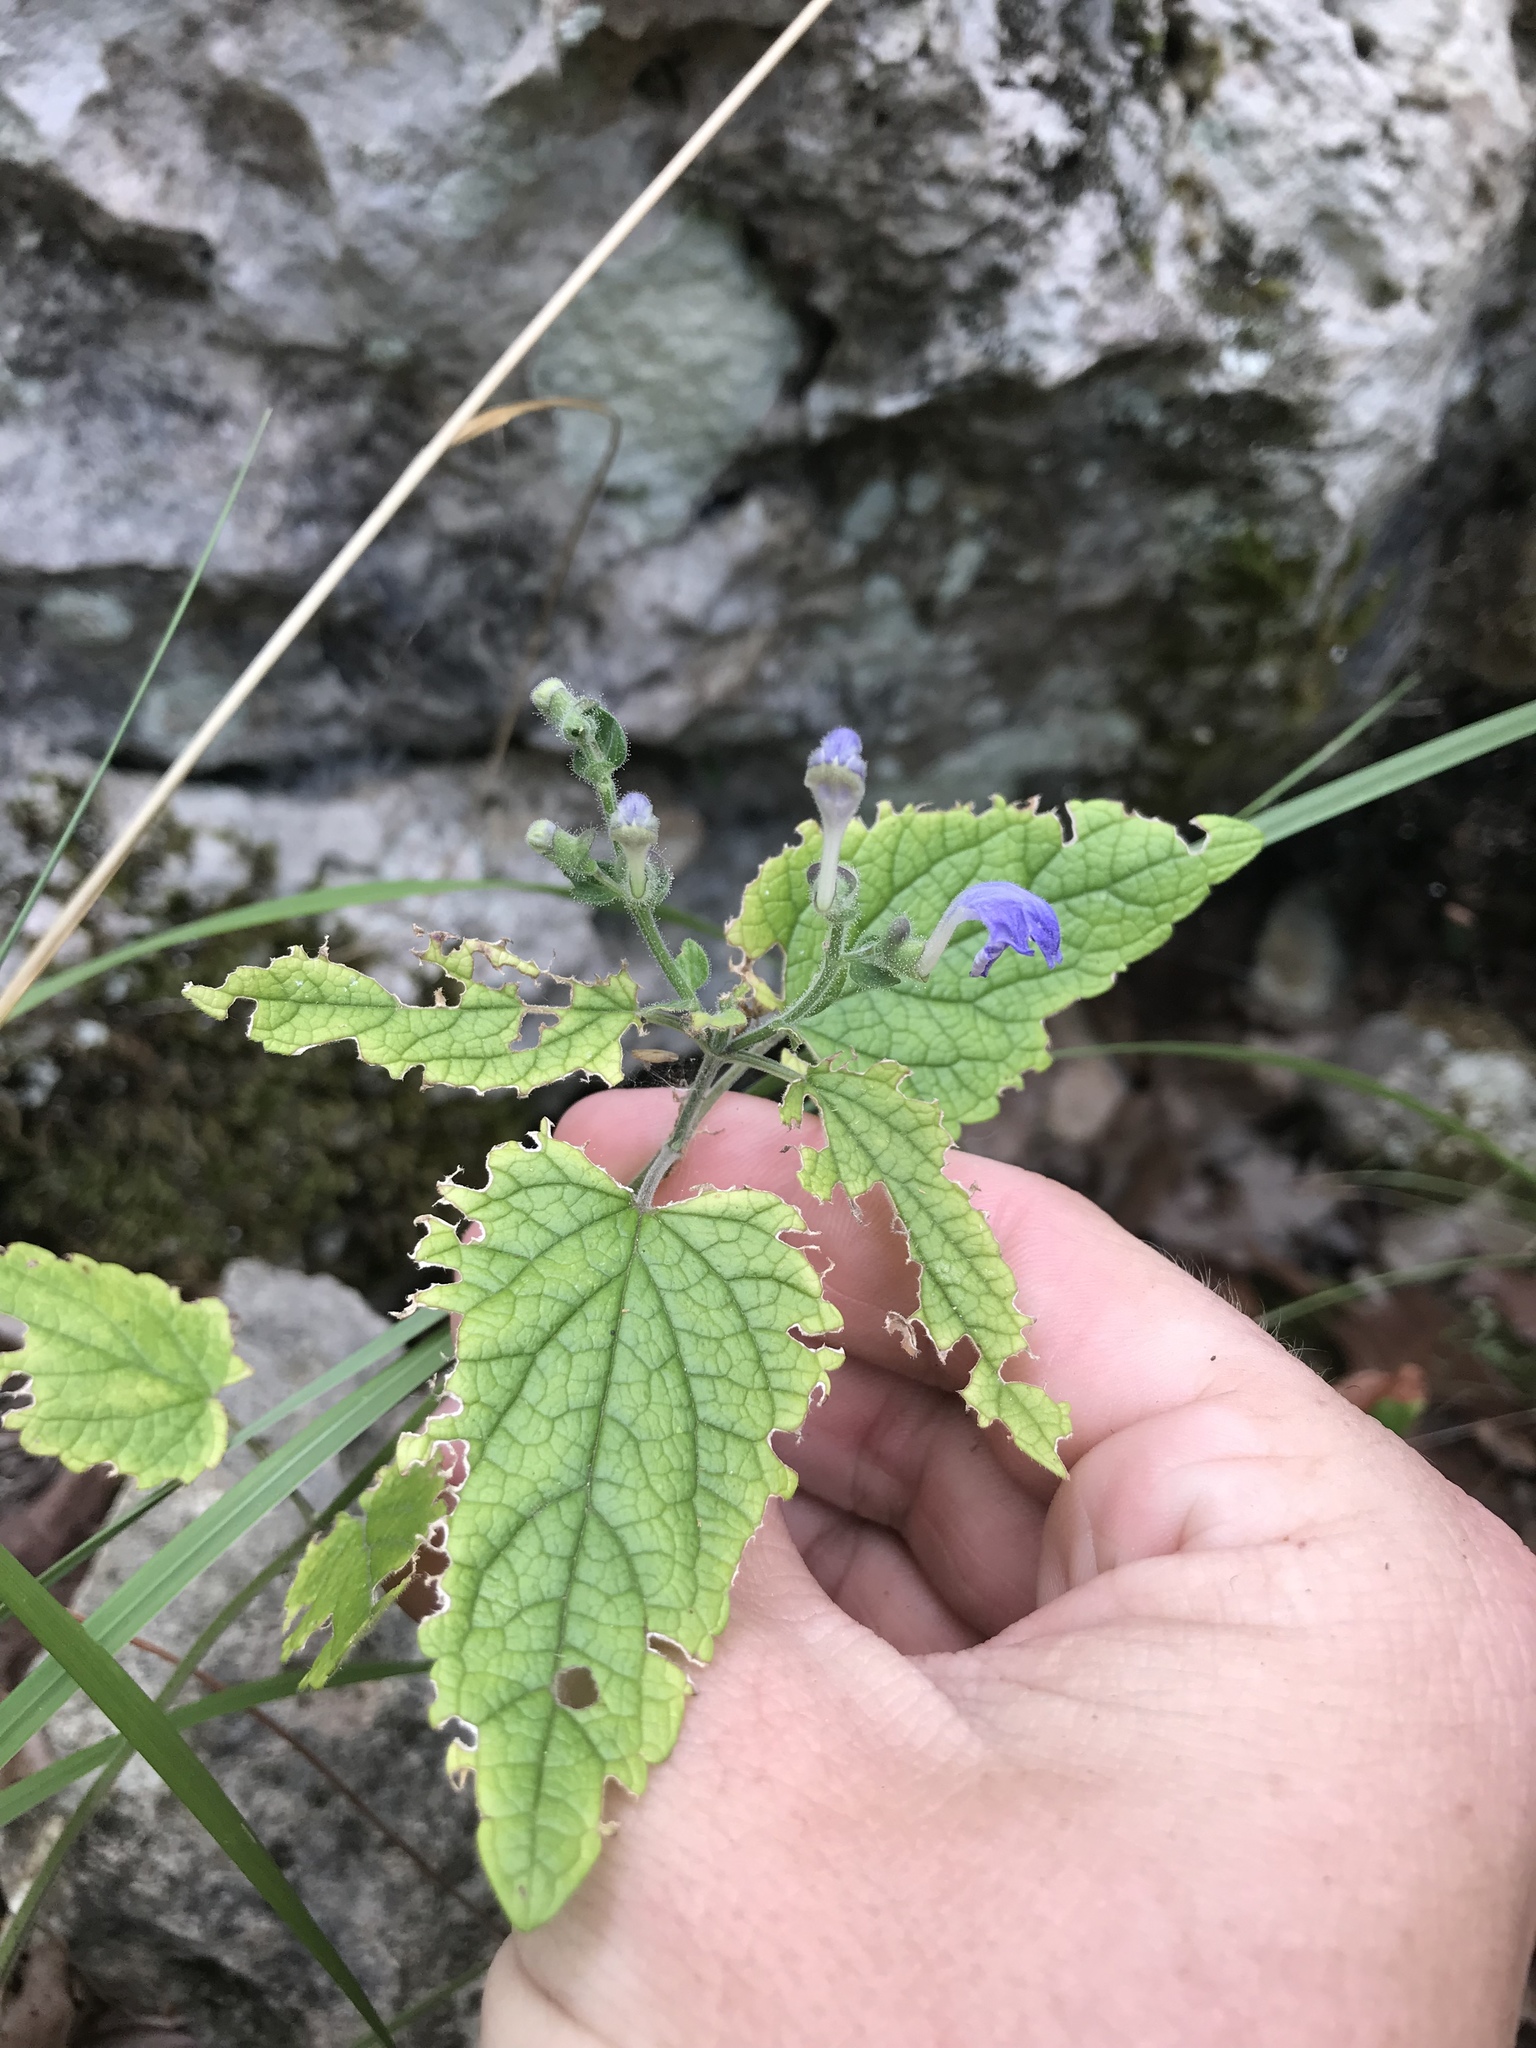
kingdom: Plantae
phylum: Tracheophyta
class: Magnoliopsida
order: Lamiales
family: Lamiaceae
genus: Scutellaria
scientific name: Scutellaria ovata
